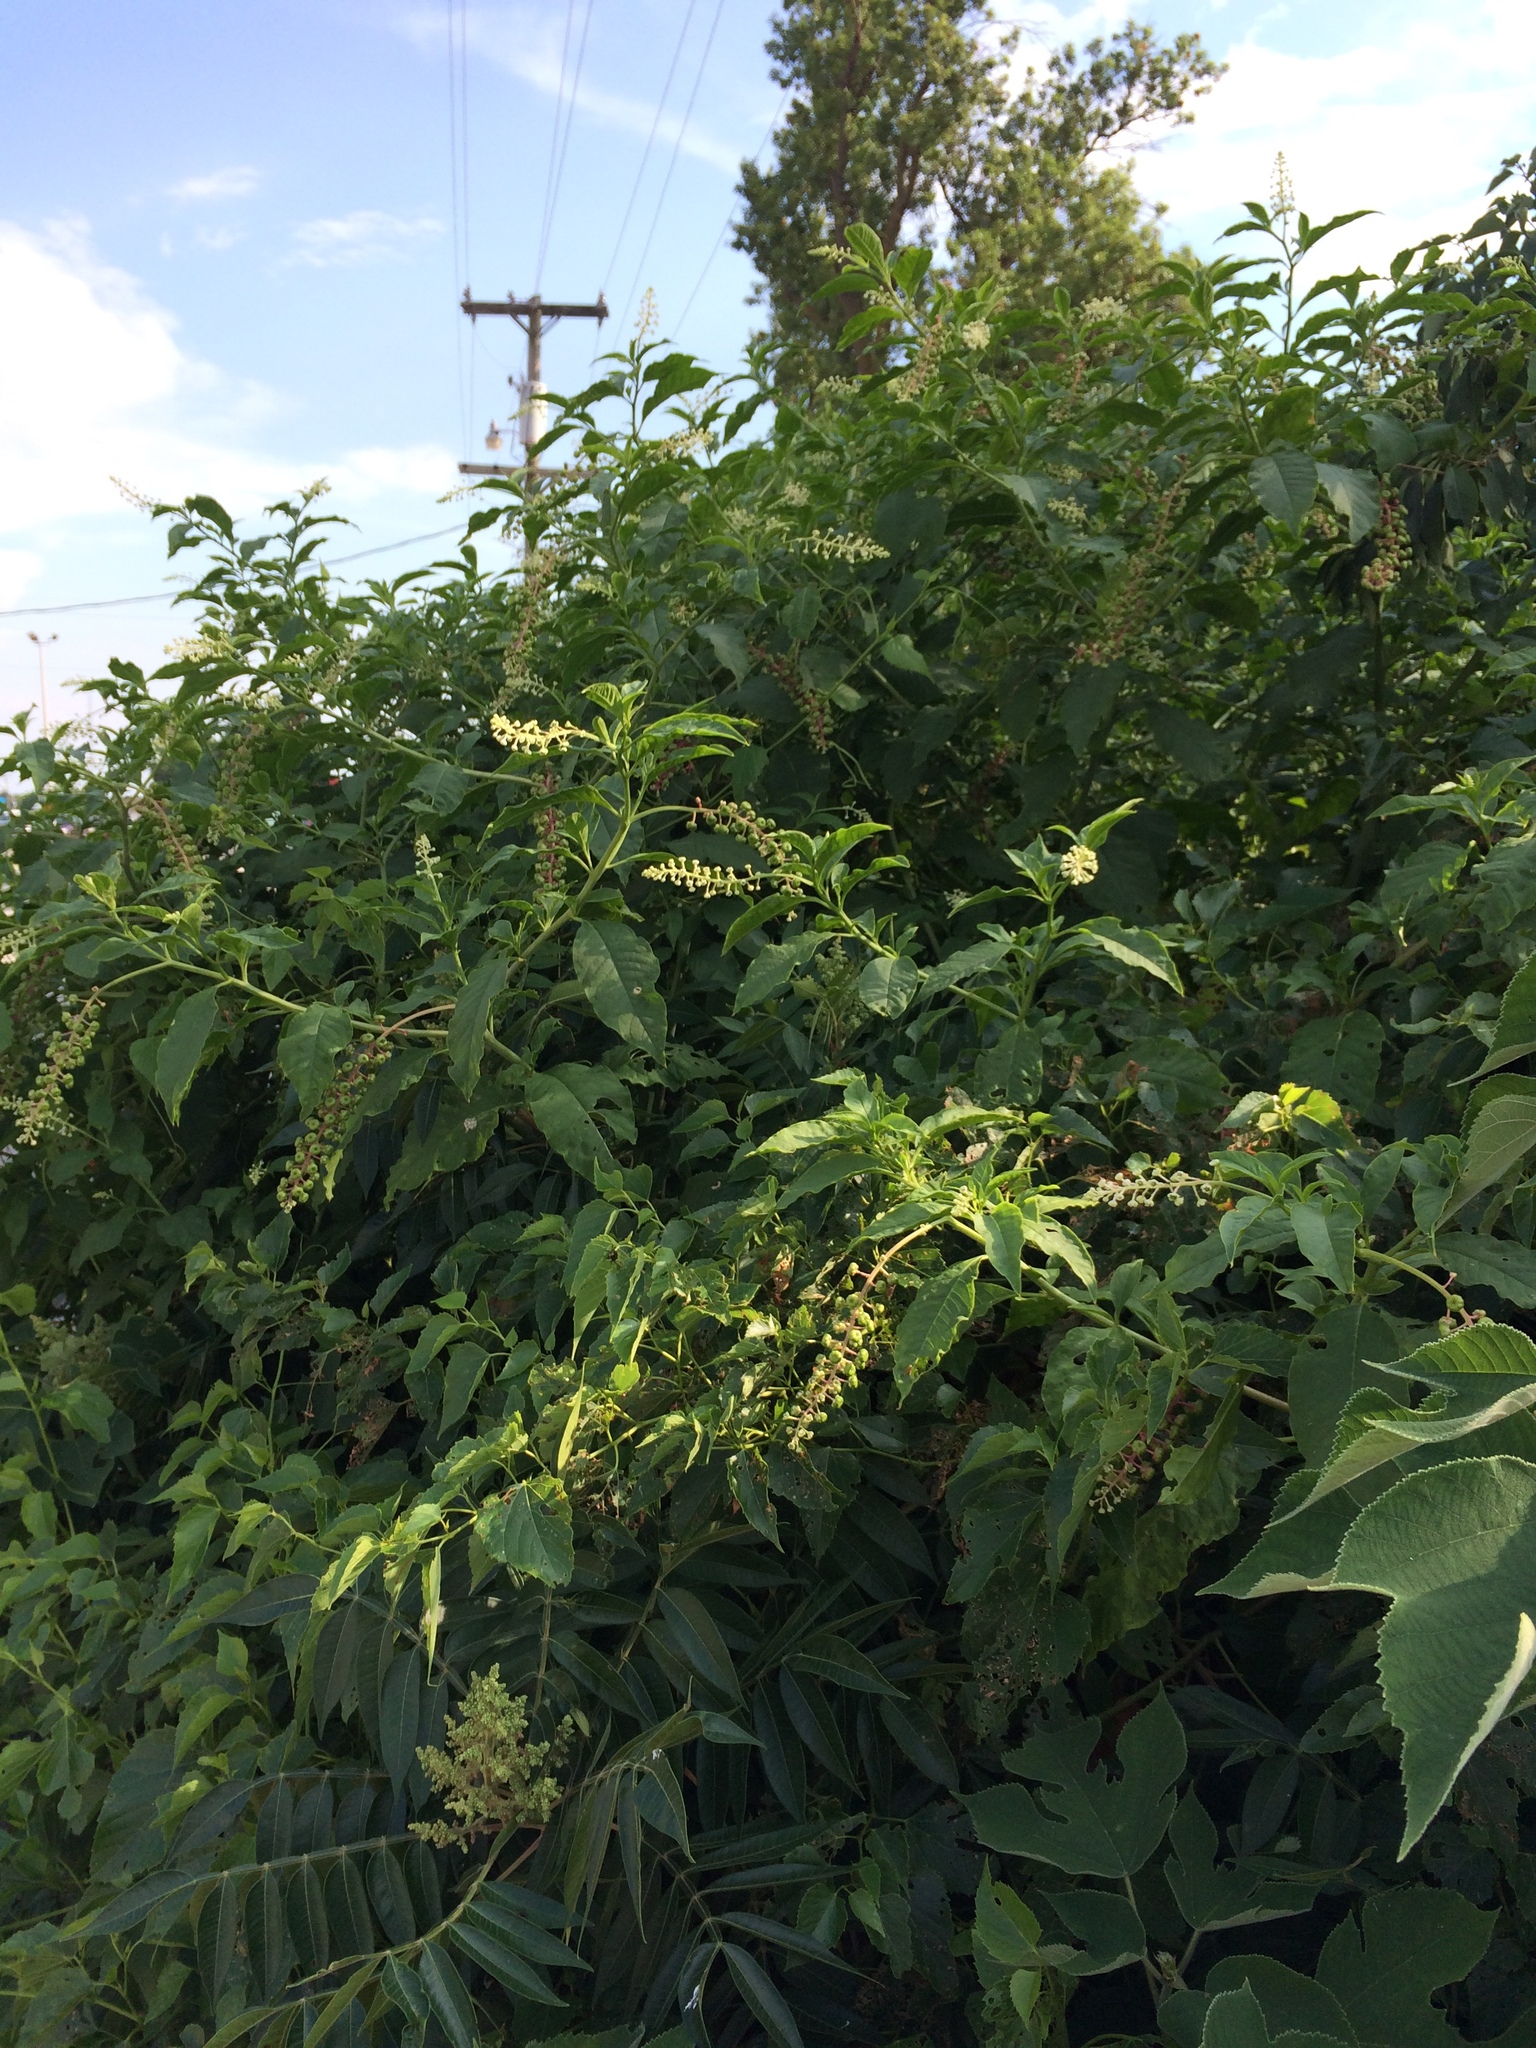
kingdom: Plantae
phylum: Tracheophyta
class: Magnoliopsida
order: Caryophyllales
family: Phytolaccaceae
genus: Phytolacca
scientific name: Phytolacca americana
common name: American pokeweed
